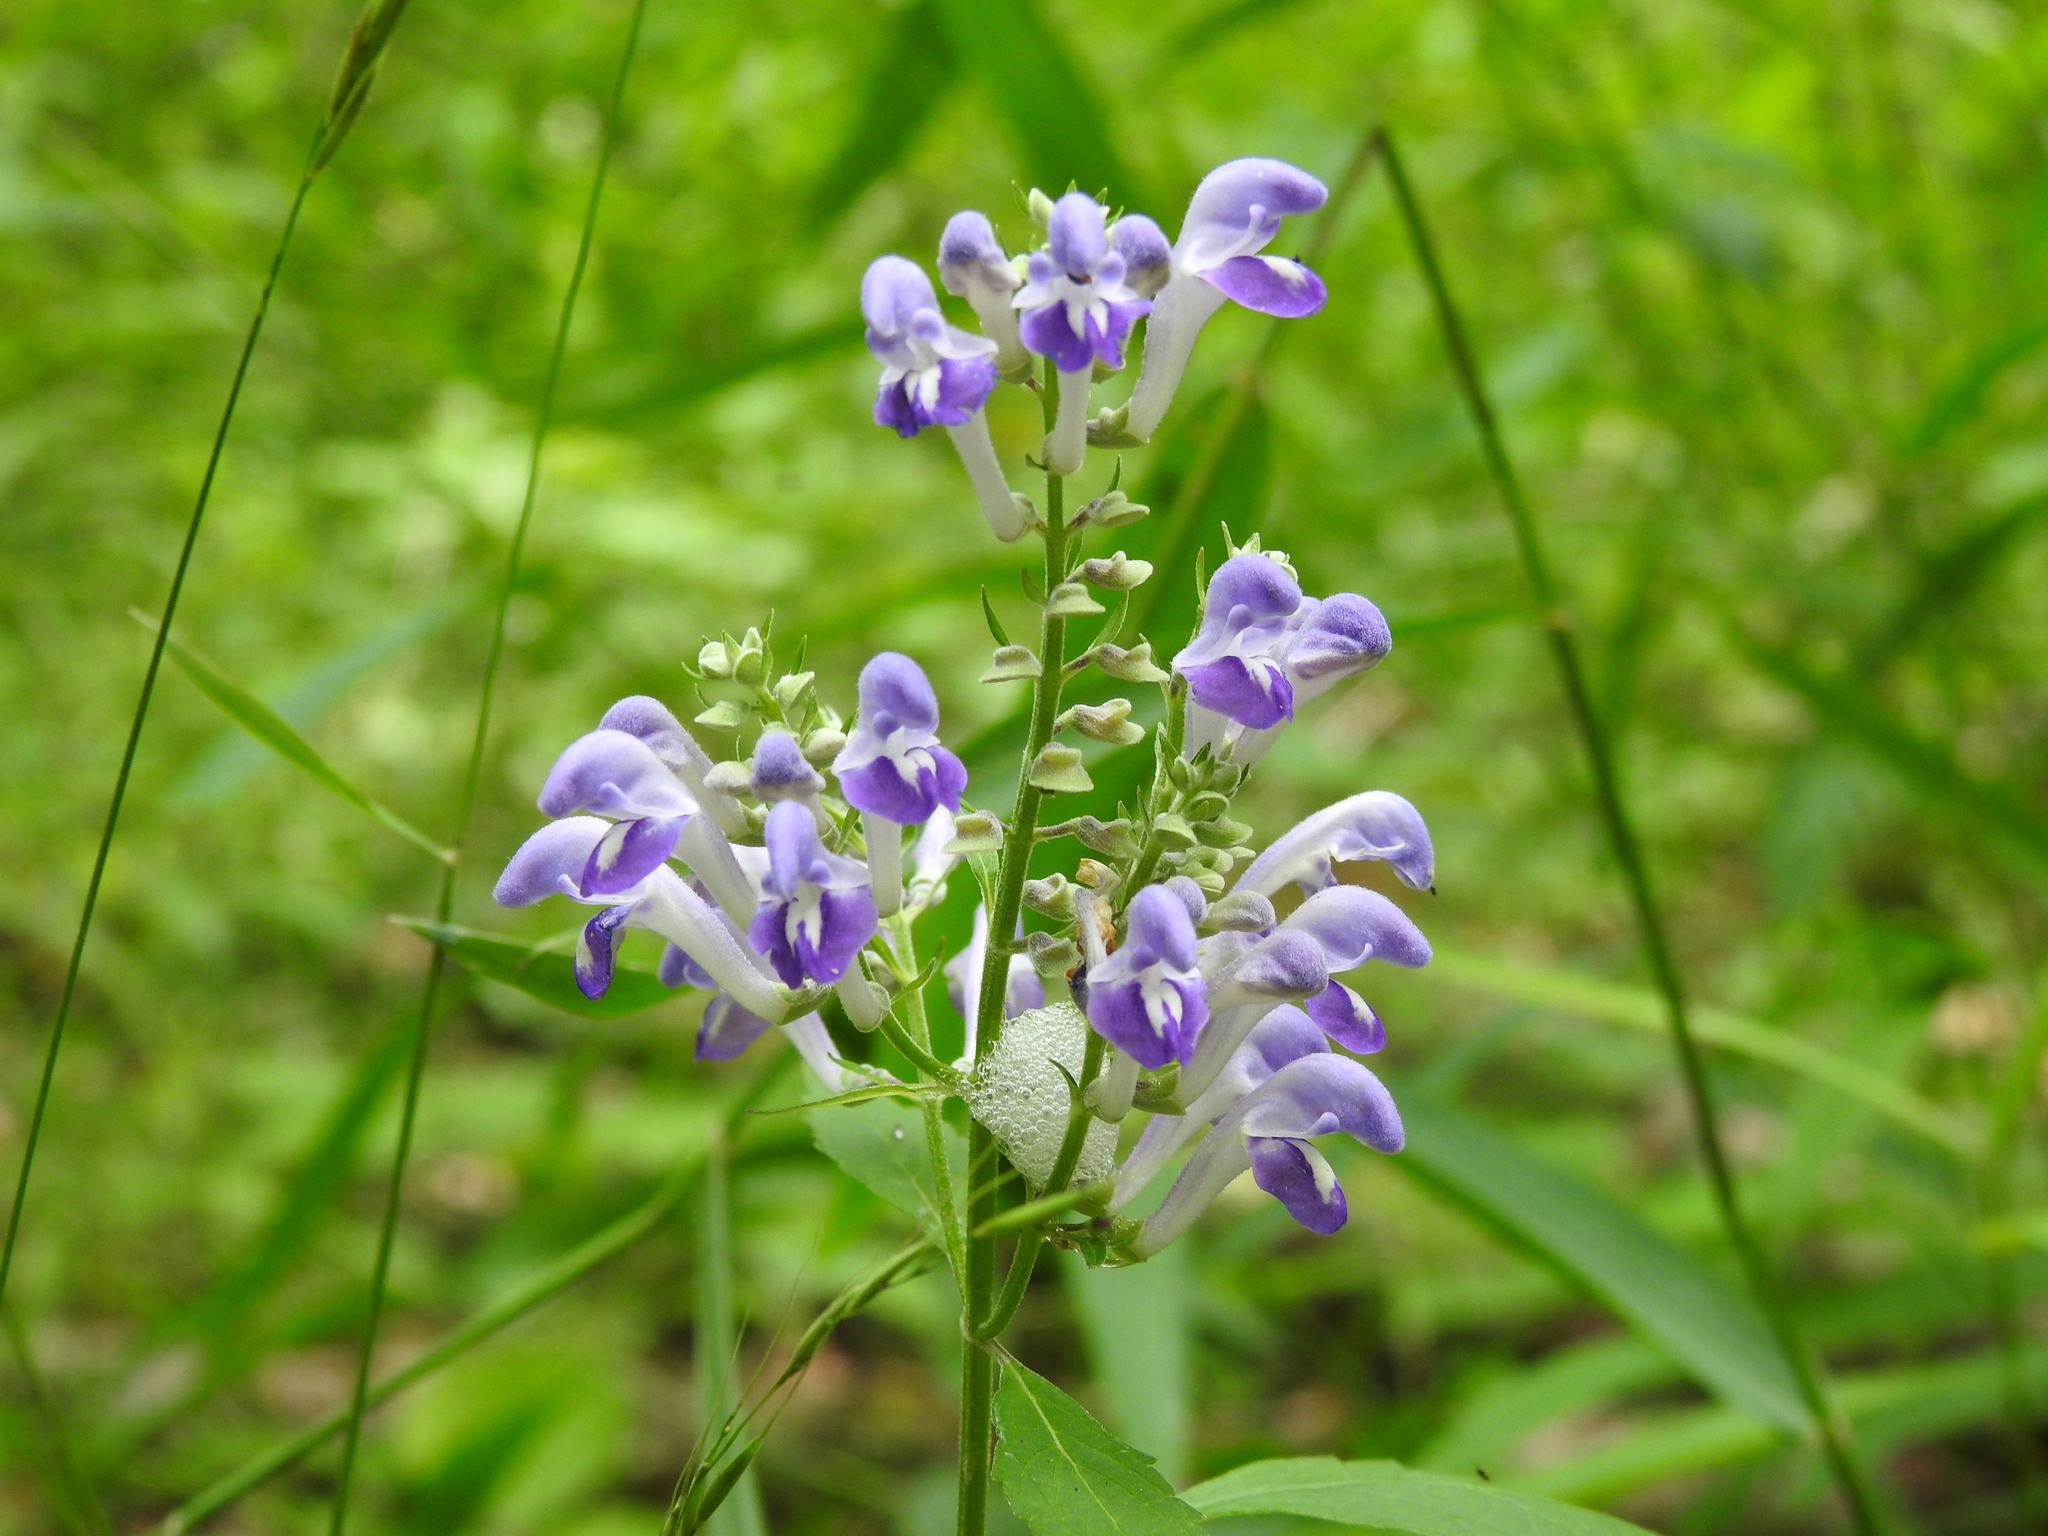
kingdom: Plantae
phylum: Tracheophyta
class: Magnoliopsida
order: Lamiales
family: Lamiaceae
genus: Scutellaria
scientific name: Scutellaria incana
